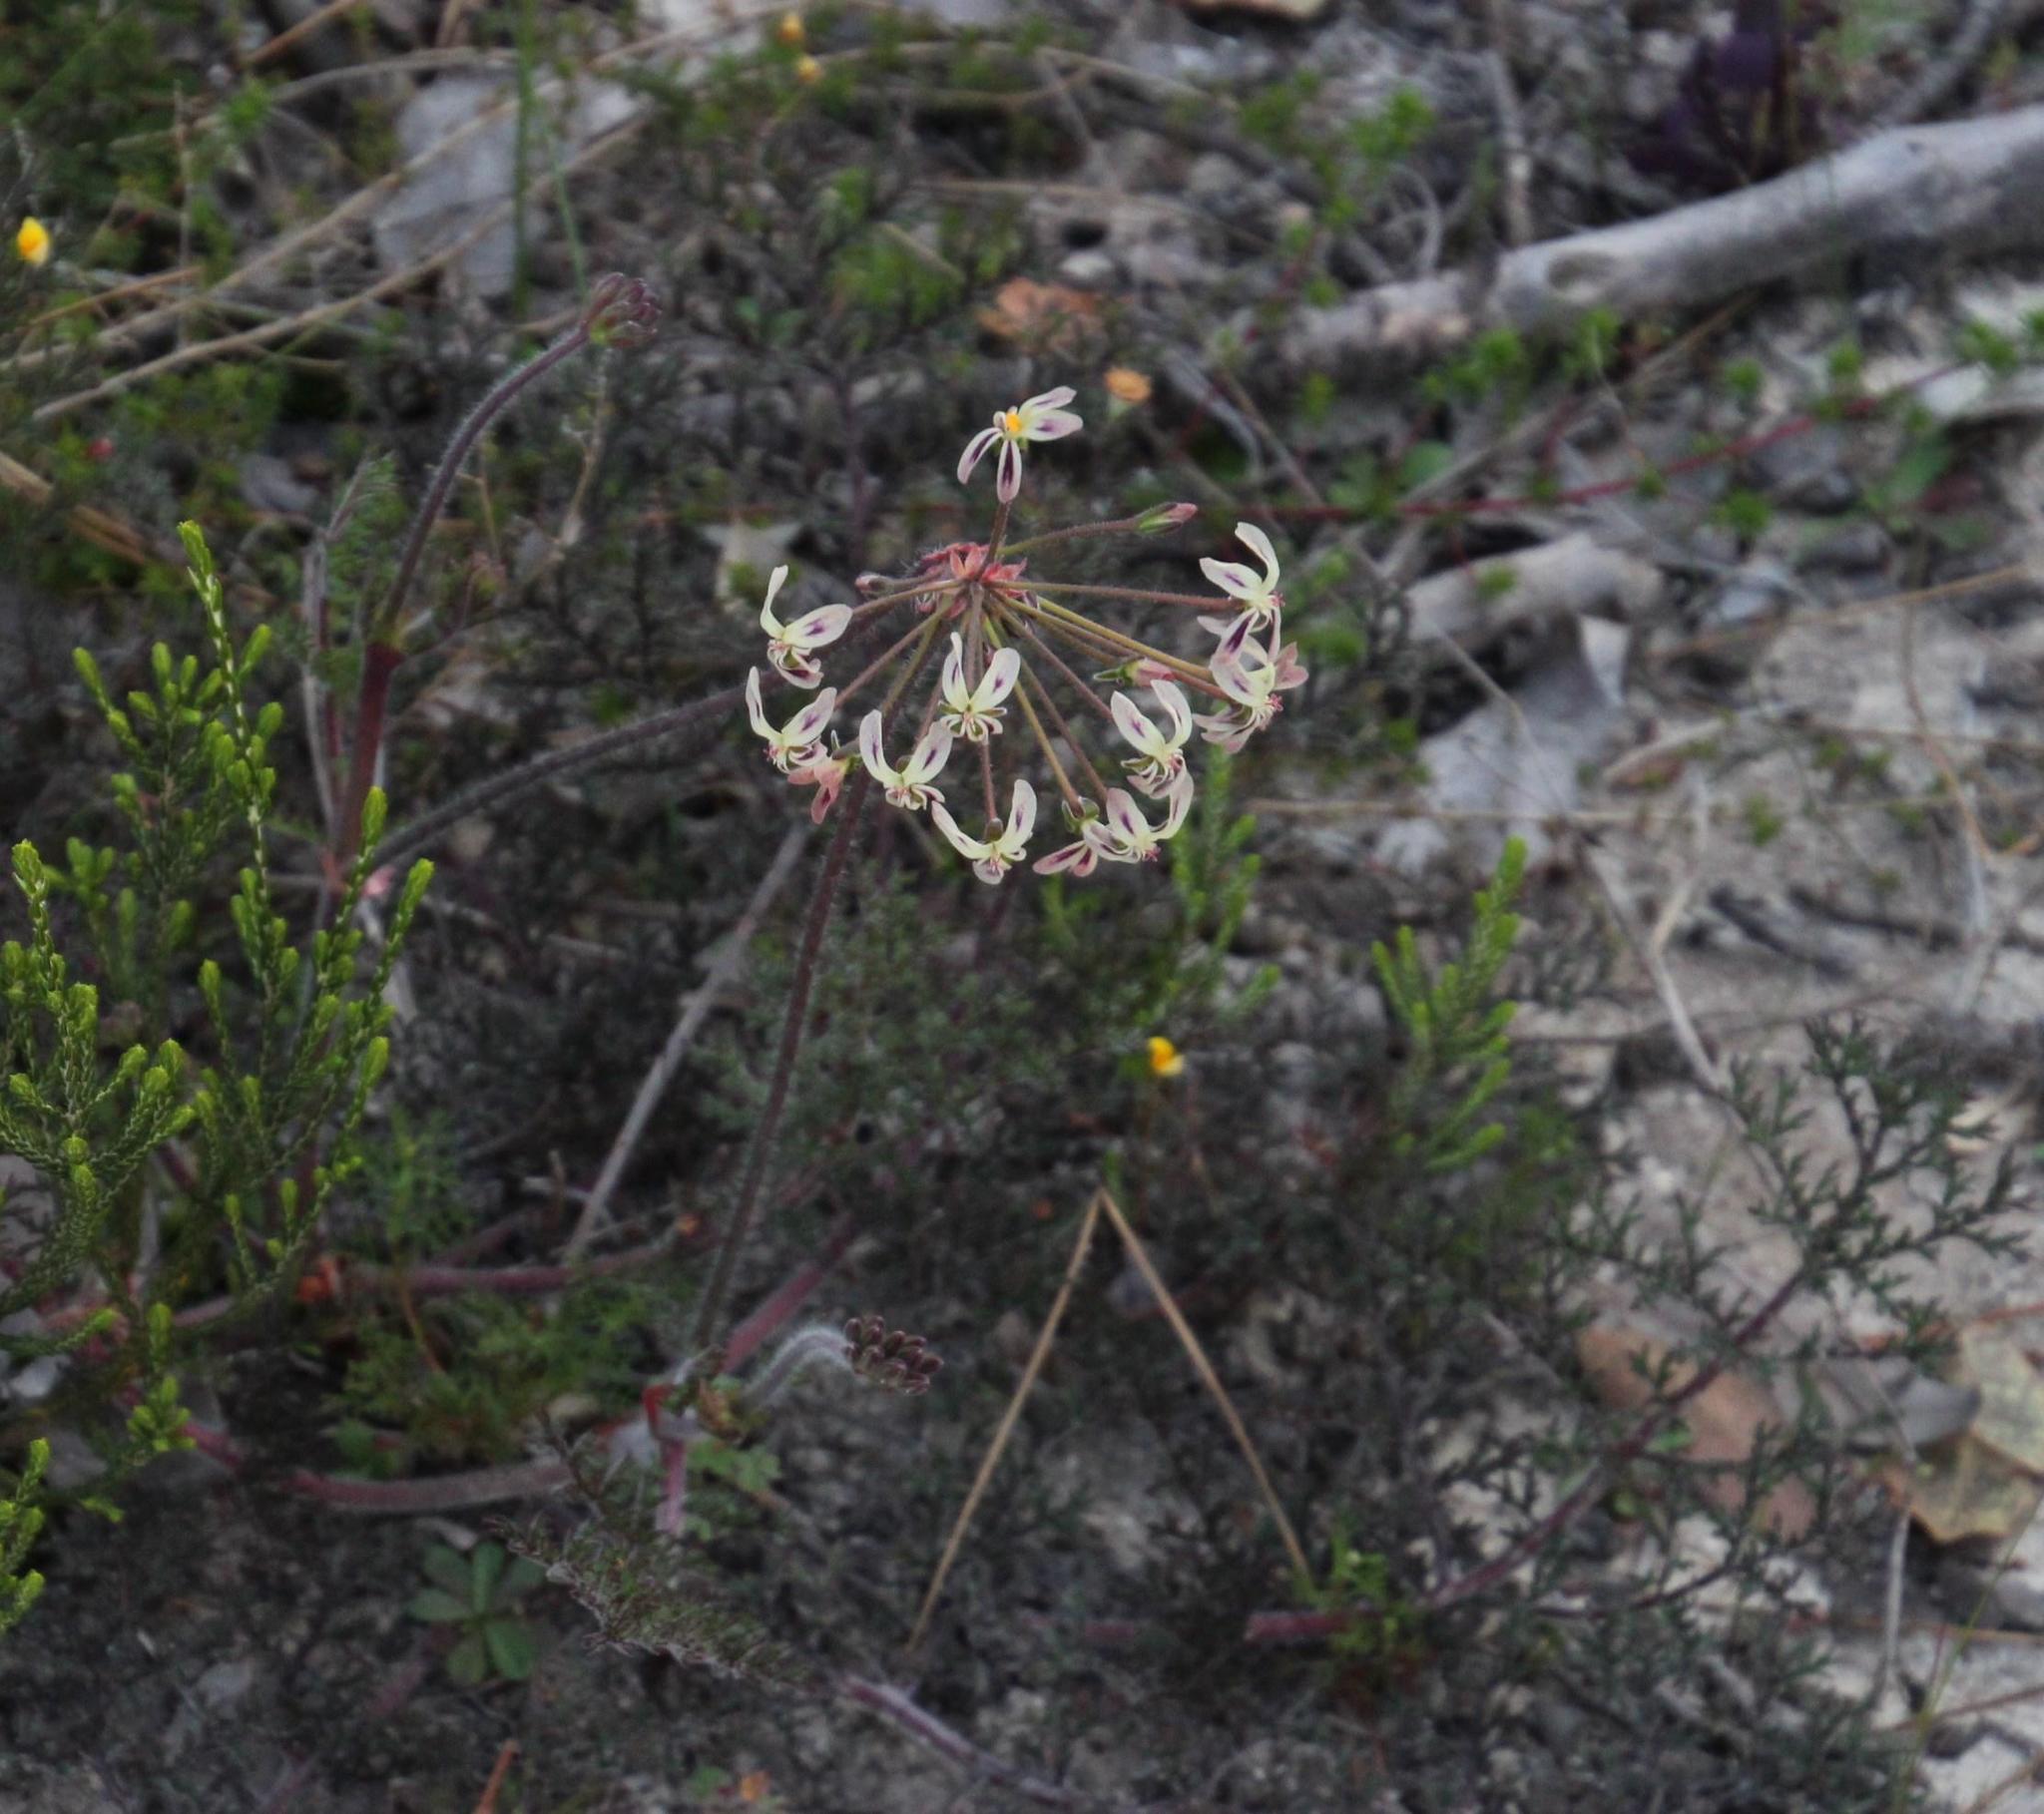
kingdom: Plantae
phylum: Tracheophyta
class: Magnoliopsida
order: Geraniales
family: Geraniaceae
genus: Pelargonium
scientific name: Pelargonium triste
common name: Night-scent pelargonium
